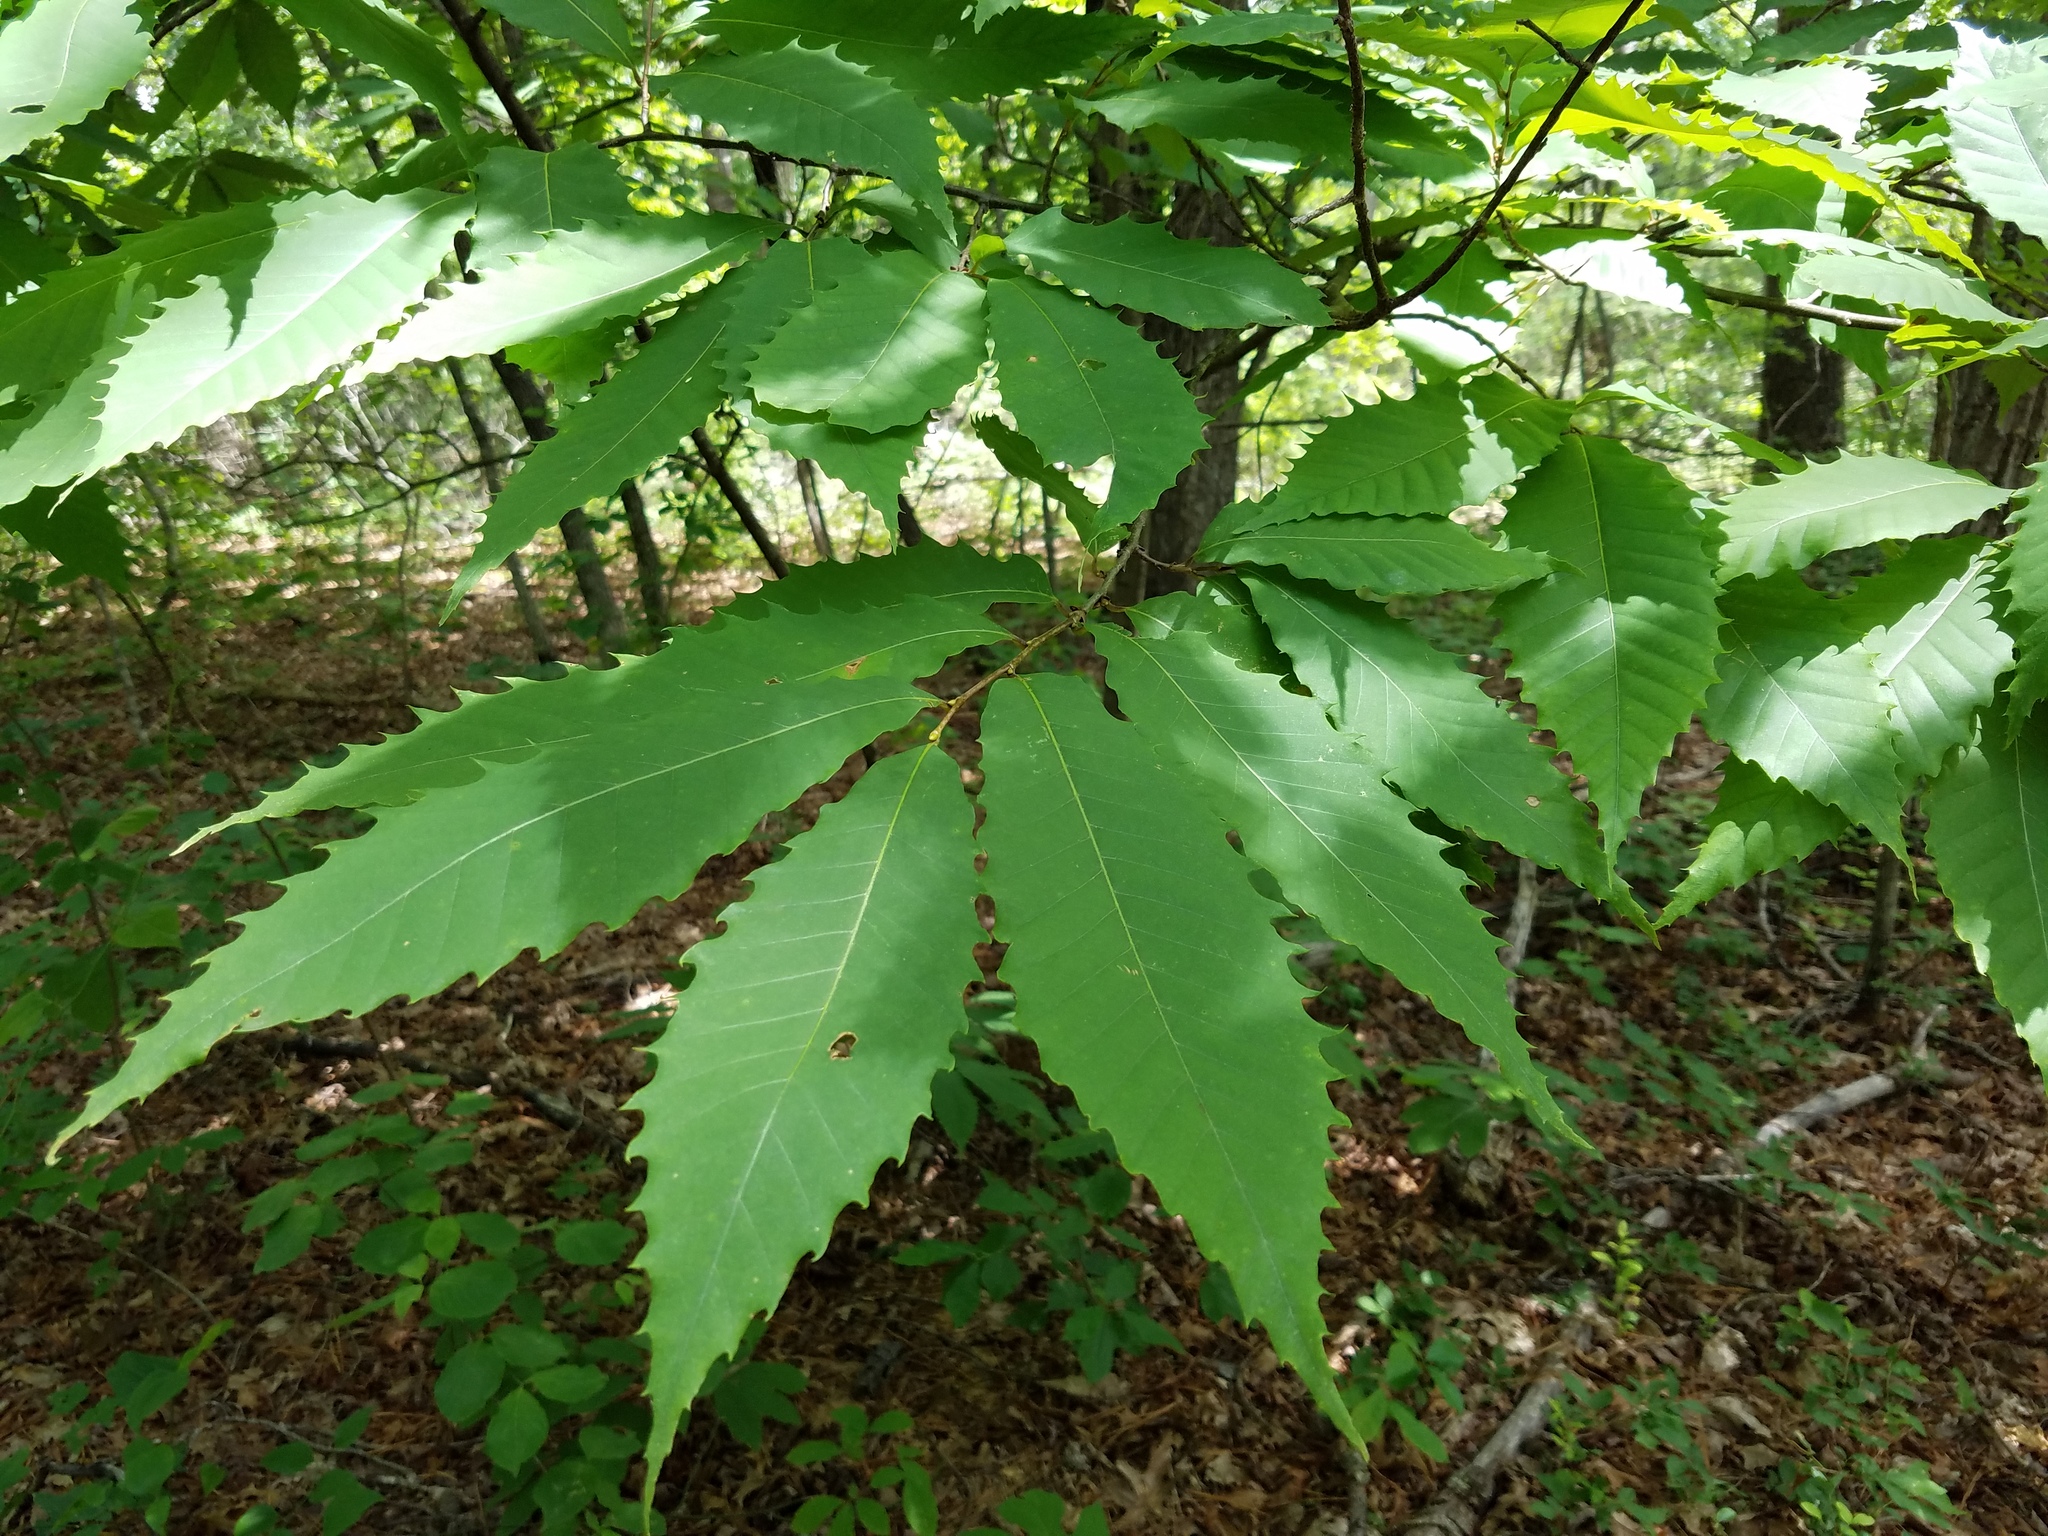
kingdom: Plantae
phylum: Tracheophyta
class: Magnoliopsida
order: Fagales
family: Fagaceae
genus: Castanea
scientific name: Castanea dentata
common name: American chestnut
